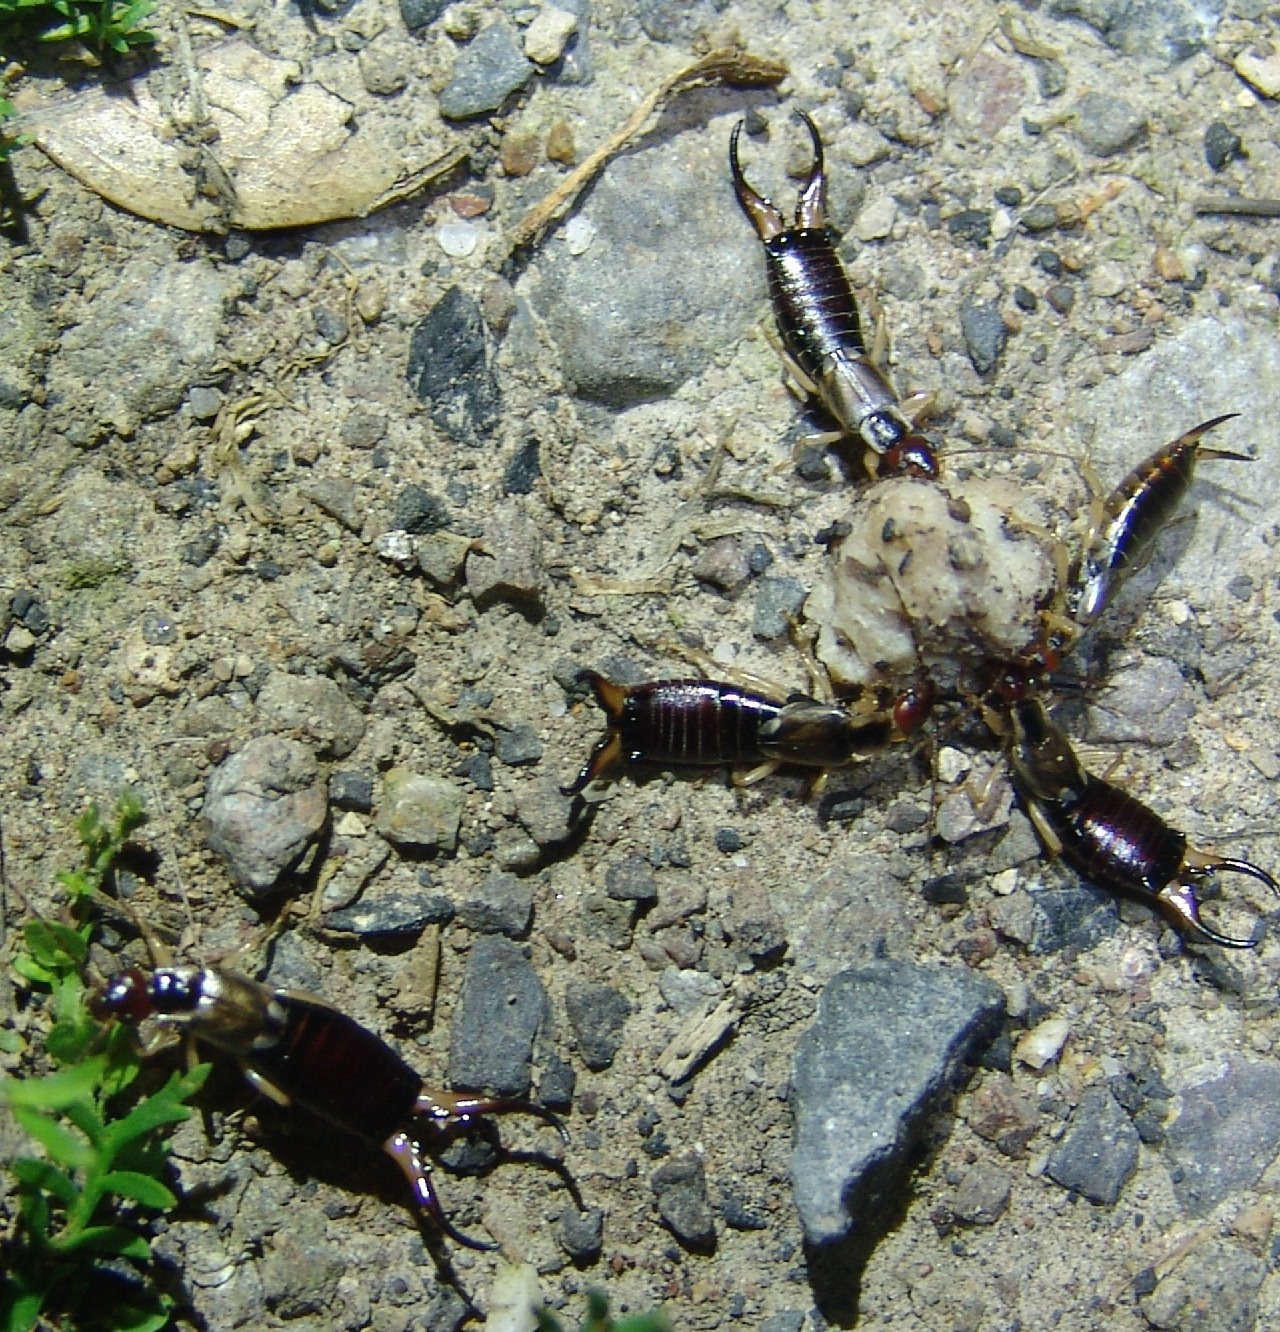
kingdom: Animalia
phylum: Arthropoda
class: Insecta
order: Dermaptera
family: Forficulidae
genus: Forficula
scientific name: Forficula
